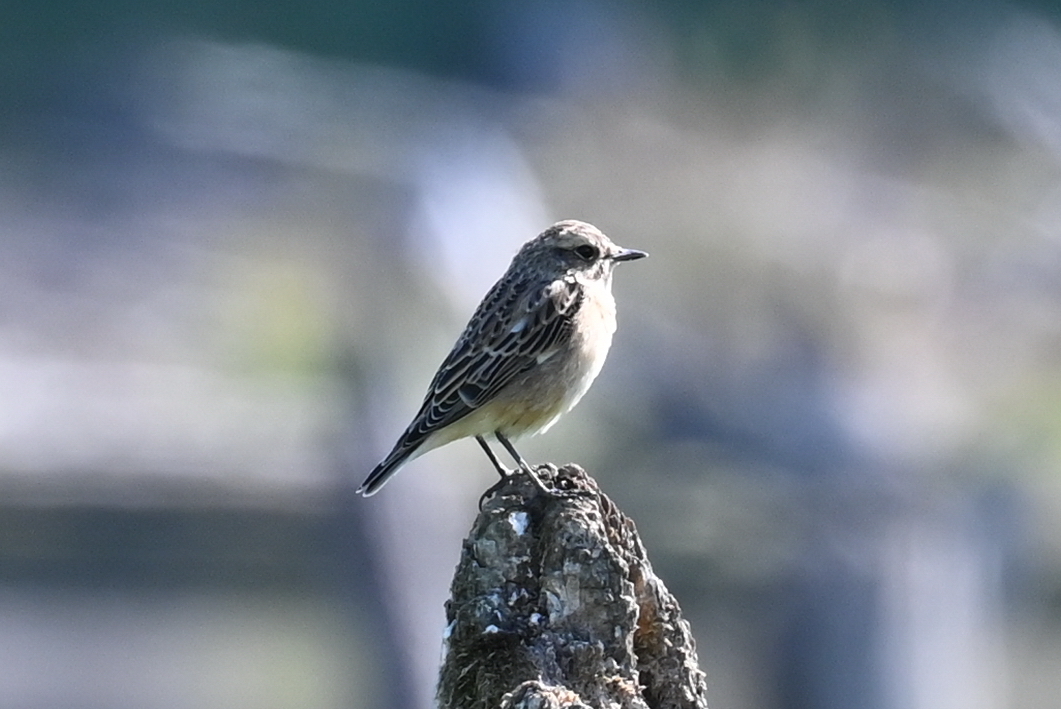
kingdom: Animalia
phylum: Chordata
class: Aves
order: Passeriformes
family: Muscicapidae
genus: Saxicola
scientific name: Saxicola rubetra
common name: Whinchat
